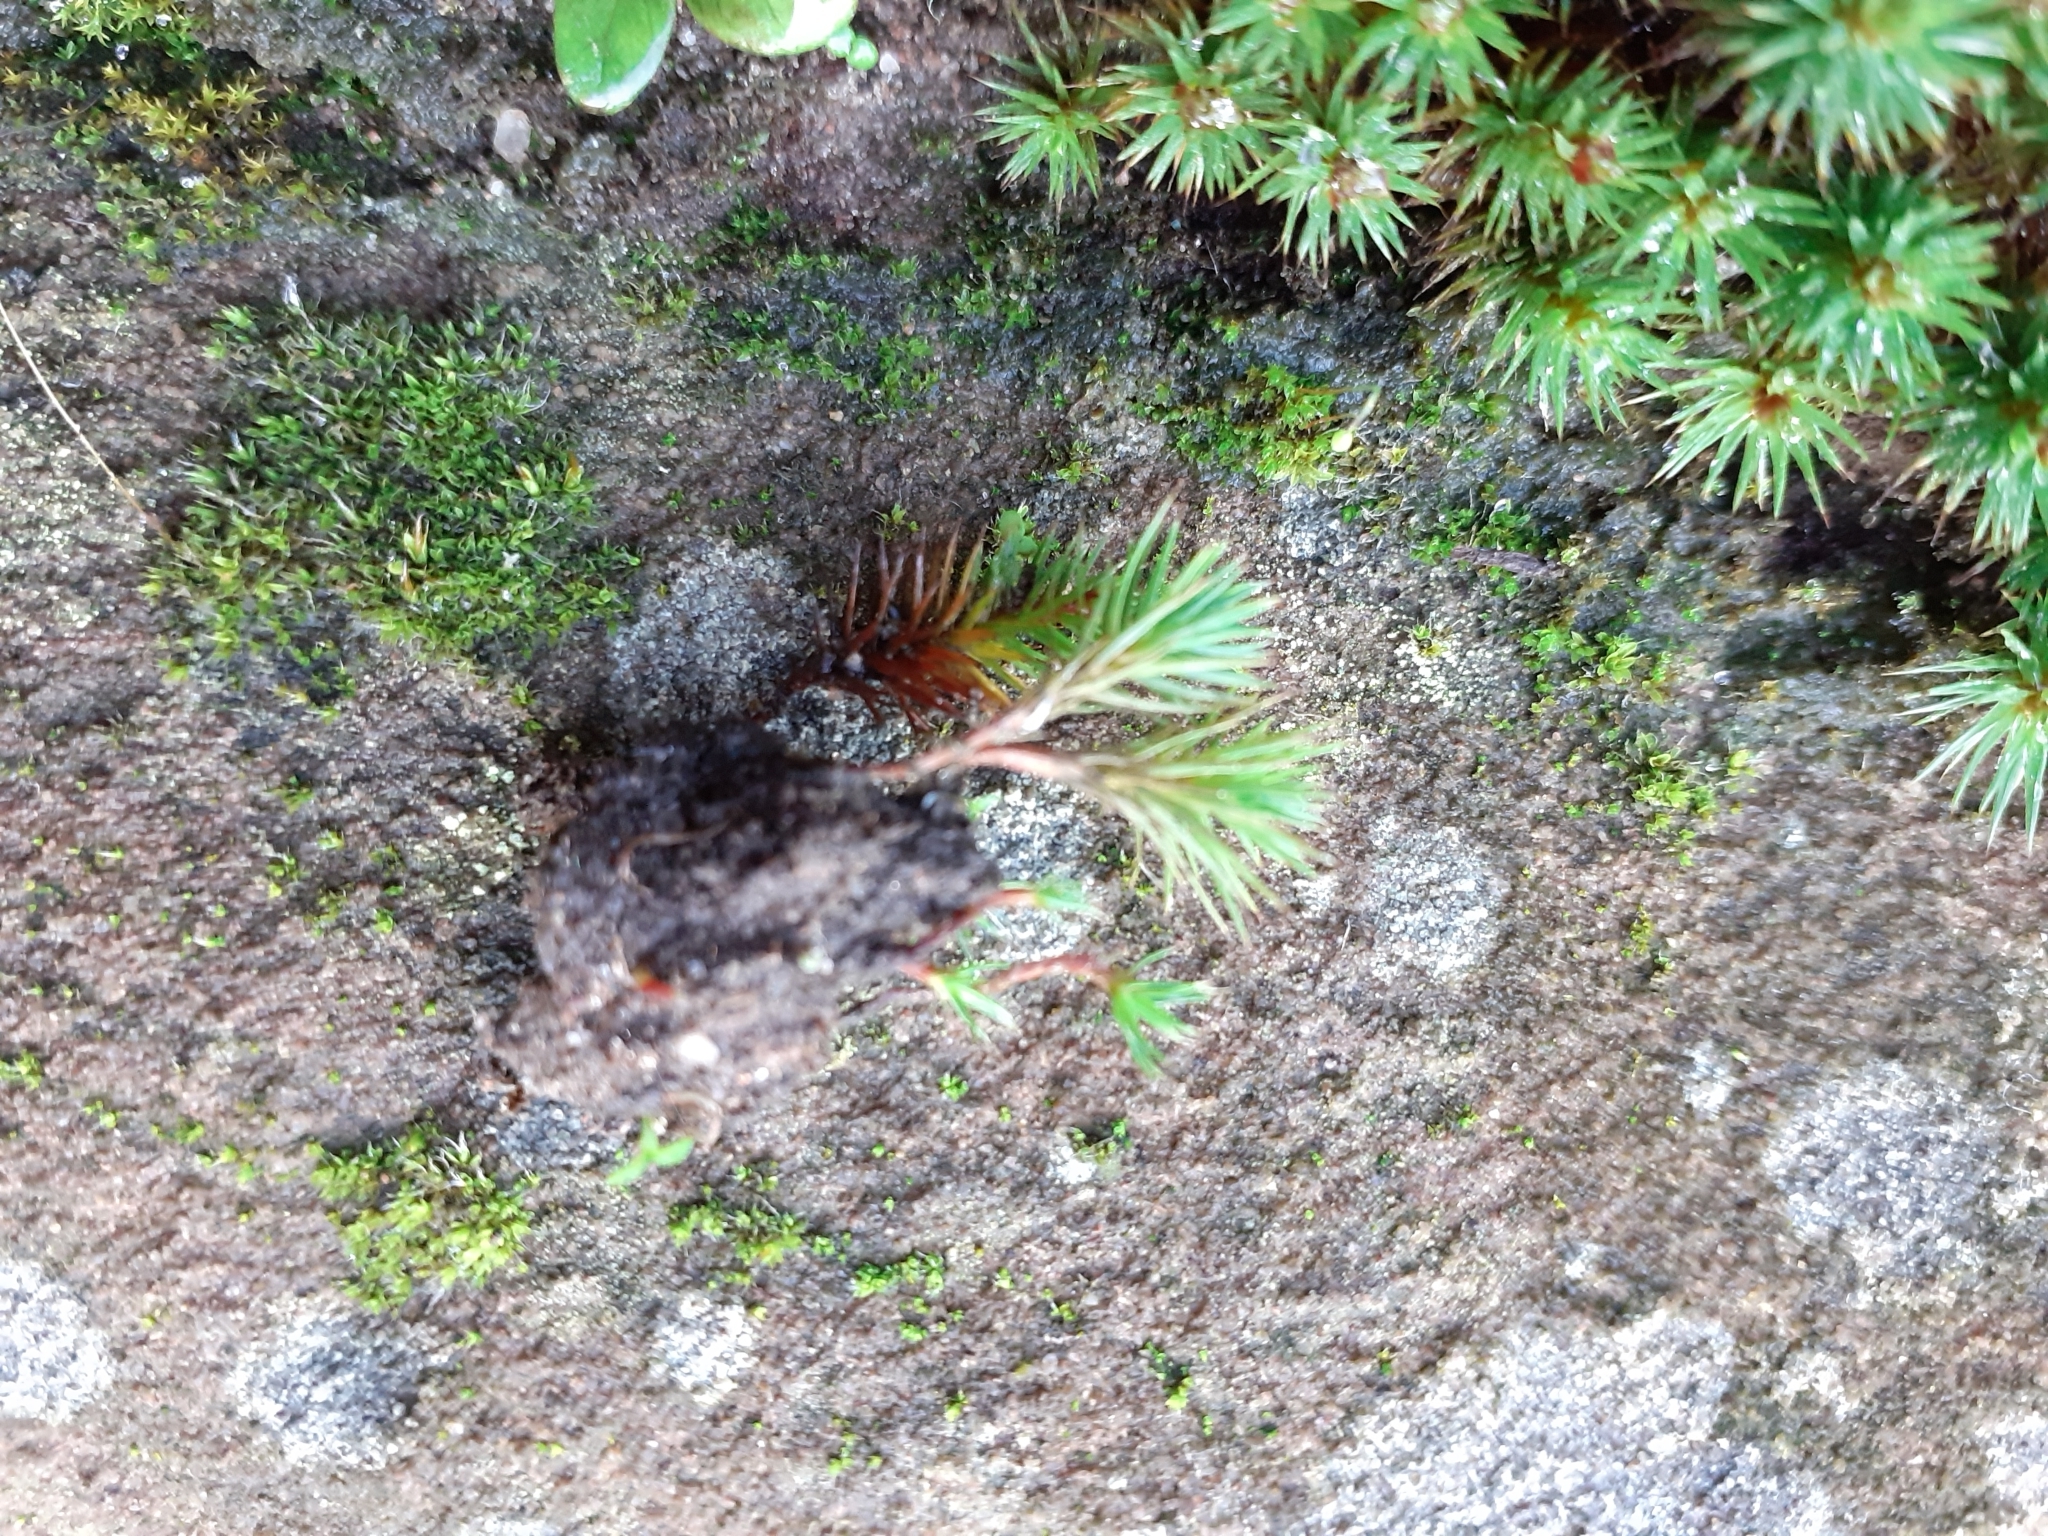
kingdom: Plantae
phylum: Bryophyta
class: Polytrichopsida
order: Polytrichales
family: Polytrichaceae
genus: Polytrichum
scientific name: Polytrichum juniperinum
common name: Juniper haircap moss
